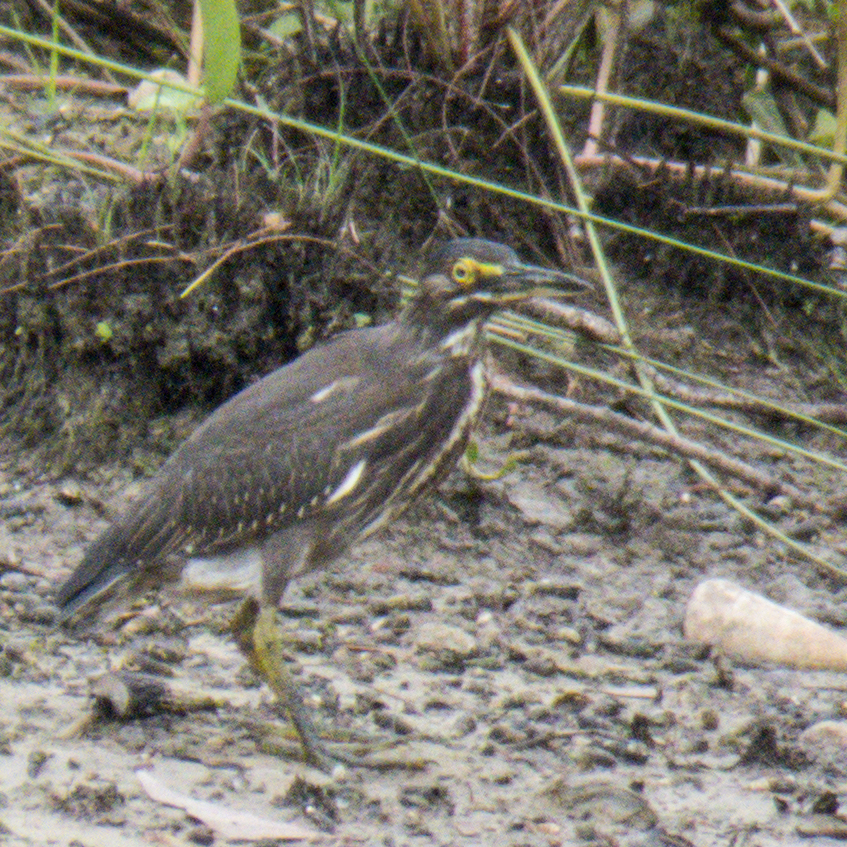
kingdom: Animalia
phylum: Chordata
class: Aves
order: Pelecaniformes
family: Ardeidae
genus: Butorides
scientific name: Butorides striata
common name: Striated heron
